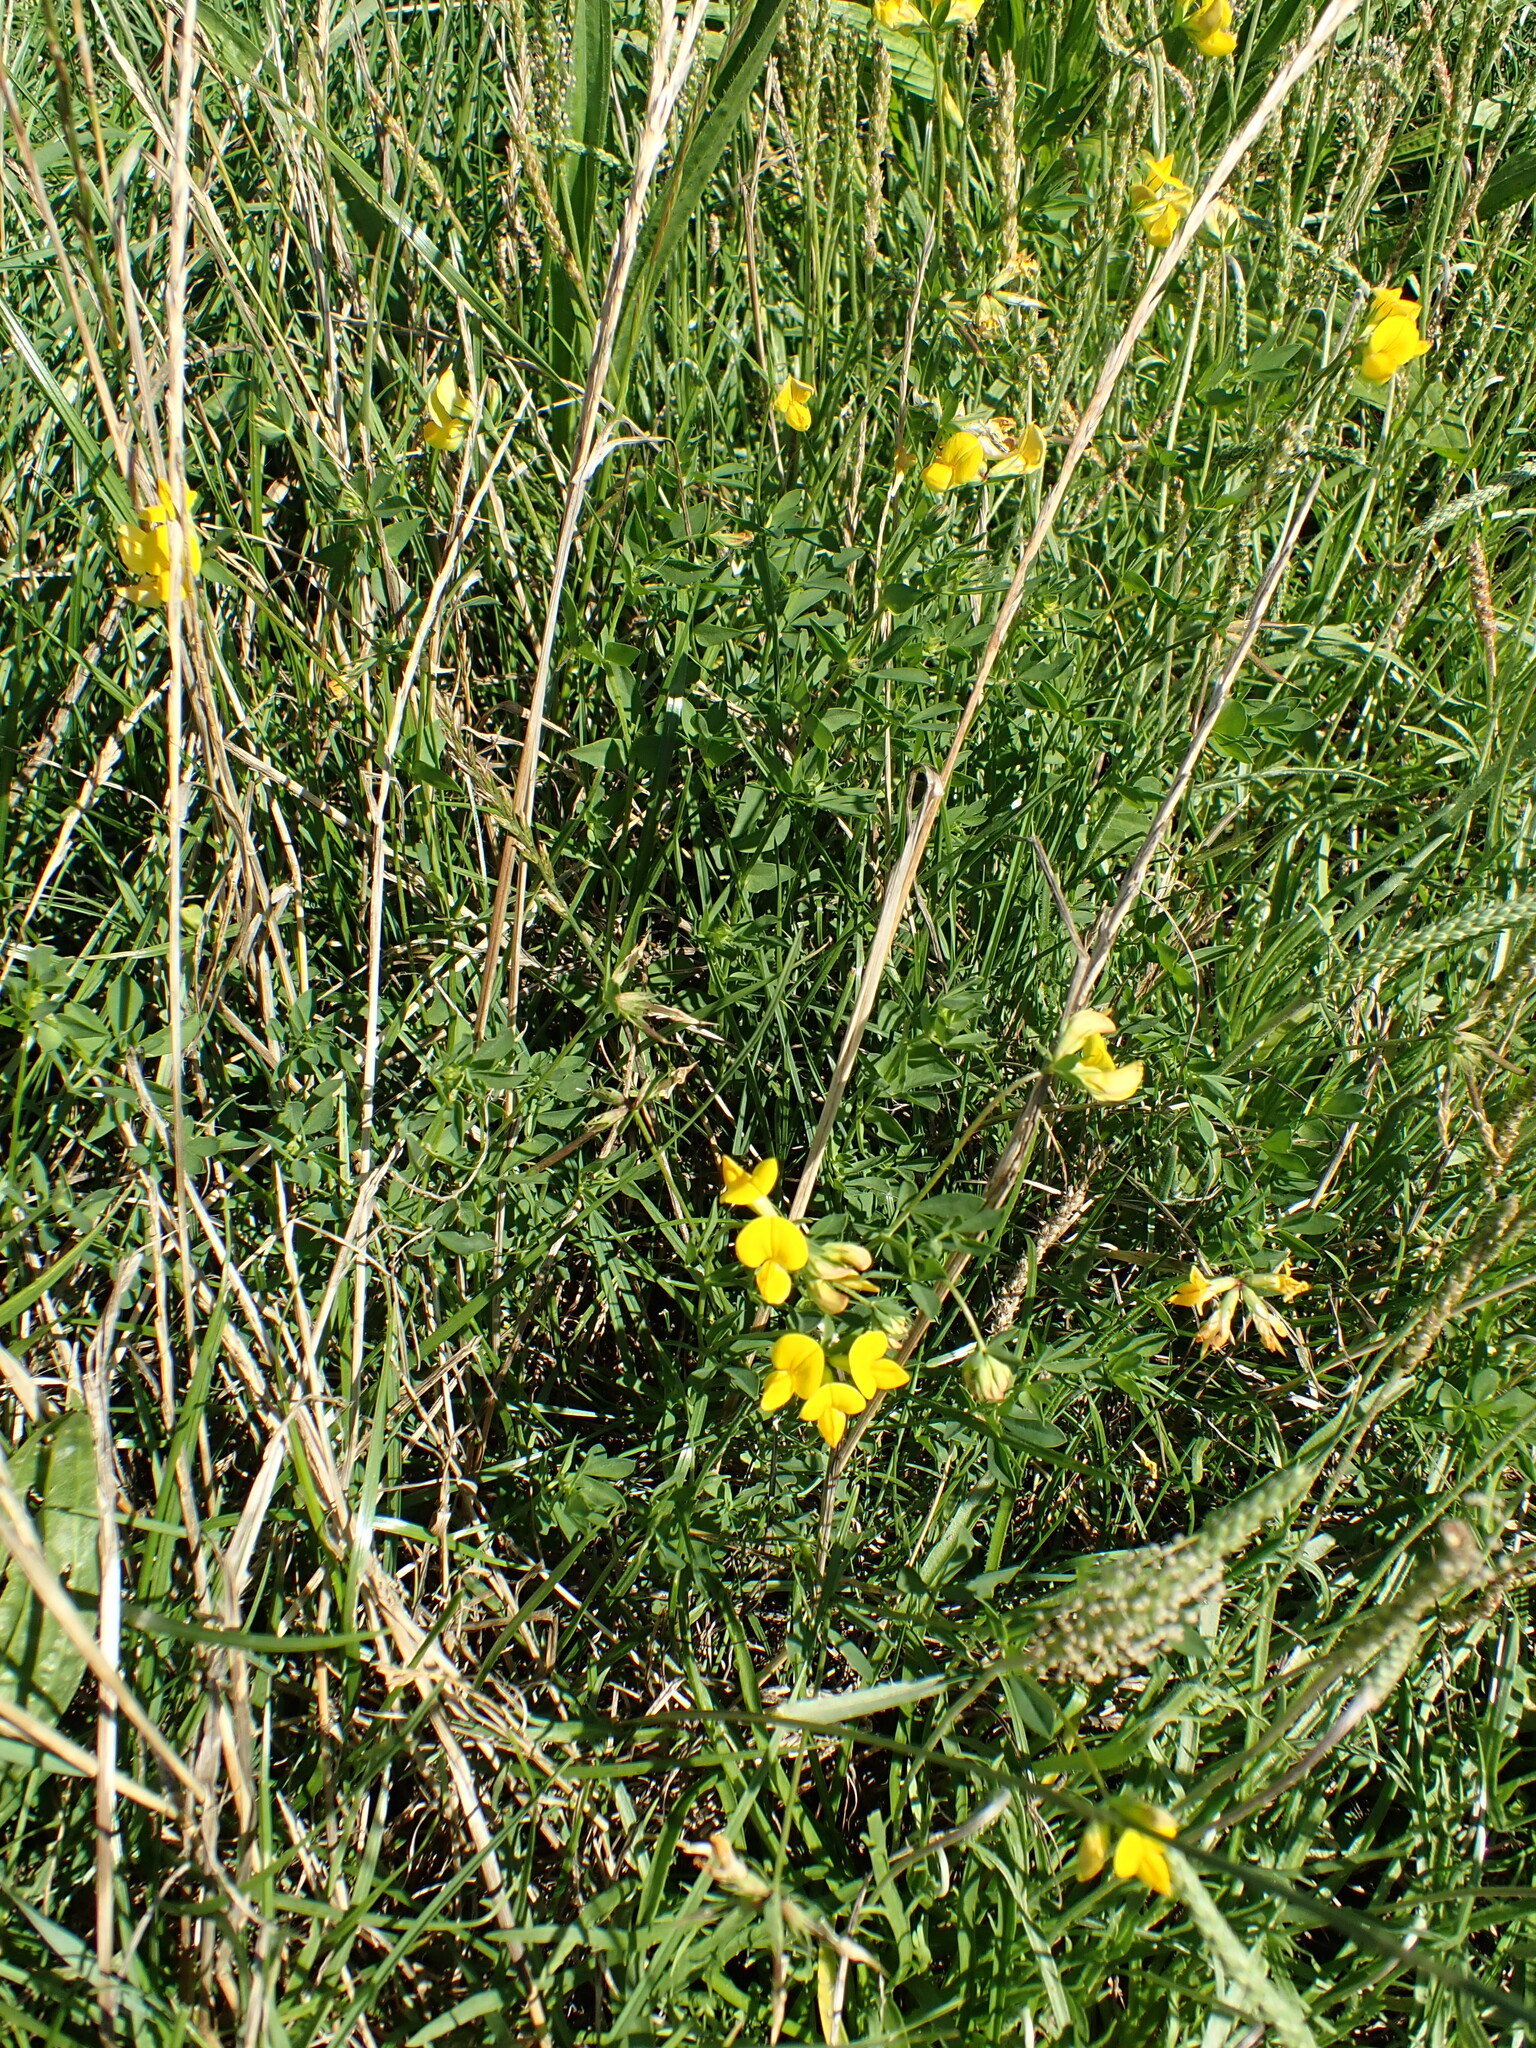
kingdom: Plantae
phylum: Tracheophyta
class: Magnoliopsida
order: Fabales
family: Fabaceae
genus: Lotus
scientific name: Lotus corniculatus
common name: Common bird's-foot-trefoil
